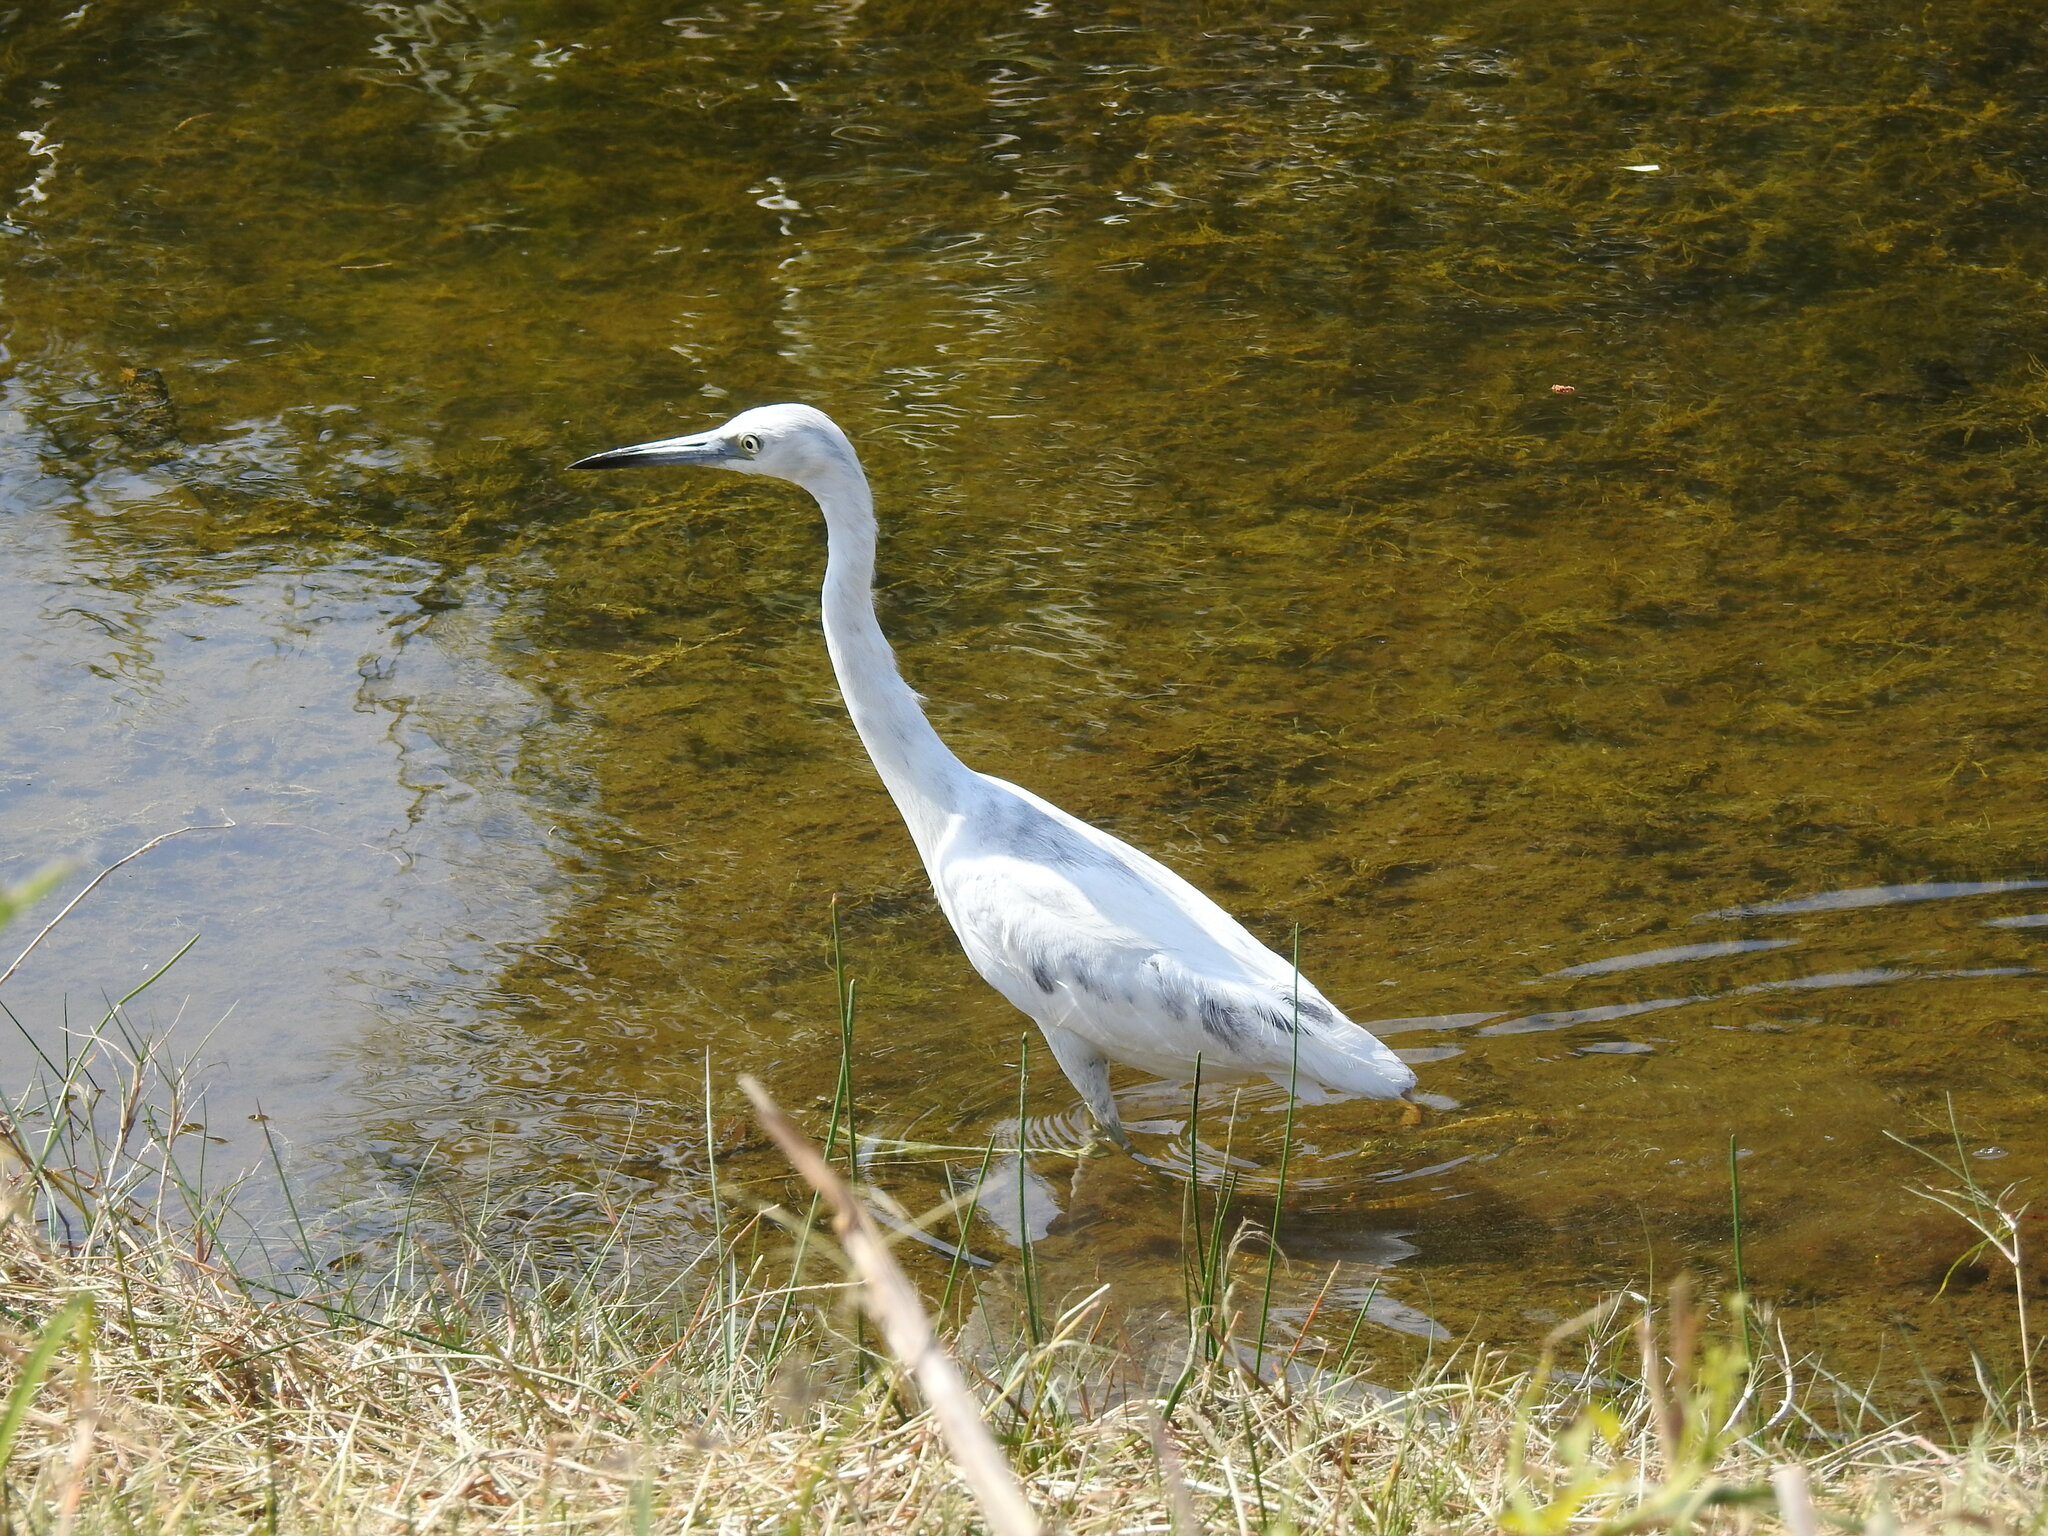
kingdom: Animalia
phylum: Chordata
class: Aves
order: Pelecaniformes
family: Ardeidae
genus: Egretta
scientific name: Egretta caerulea
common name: Little blue heron
